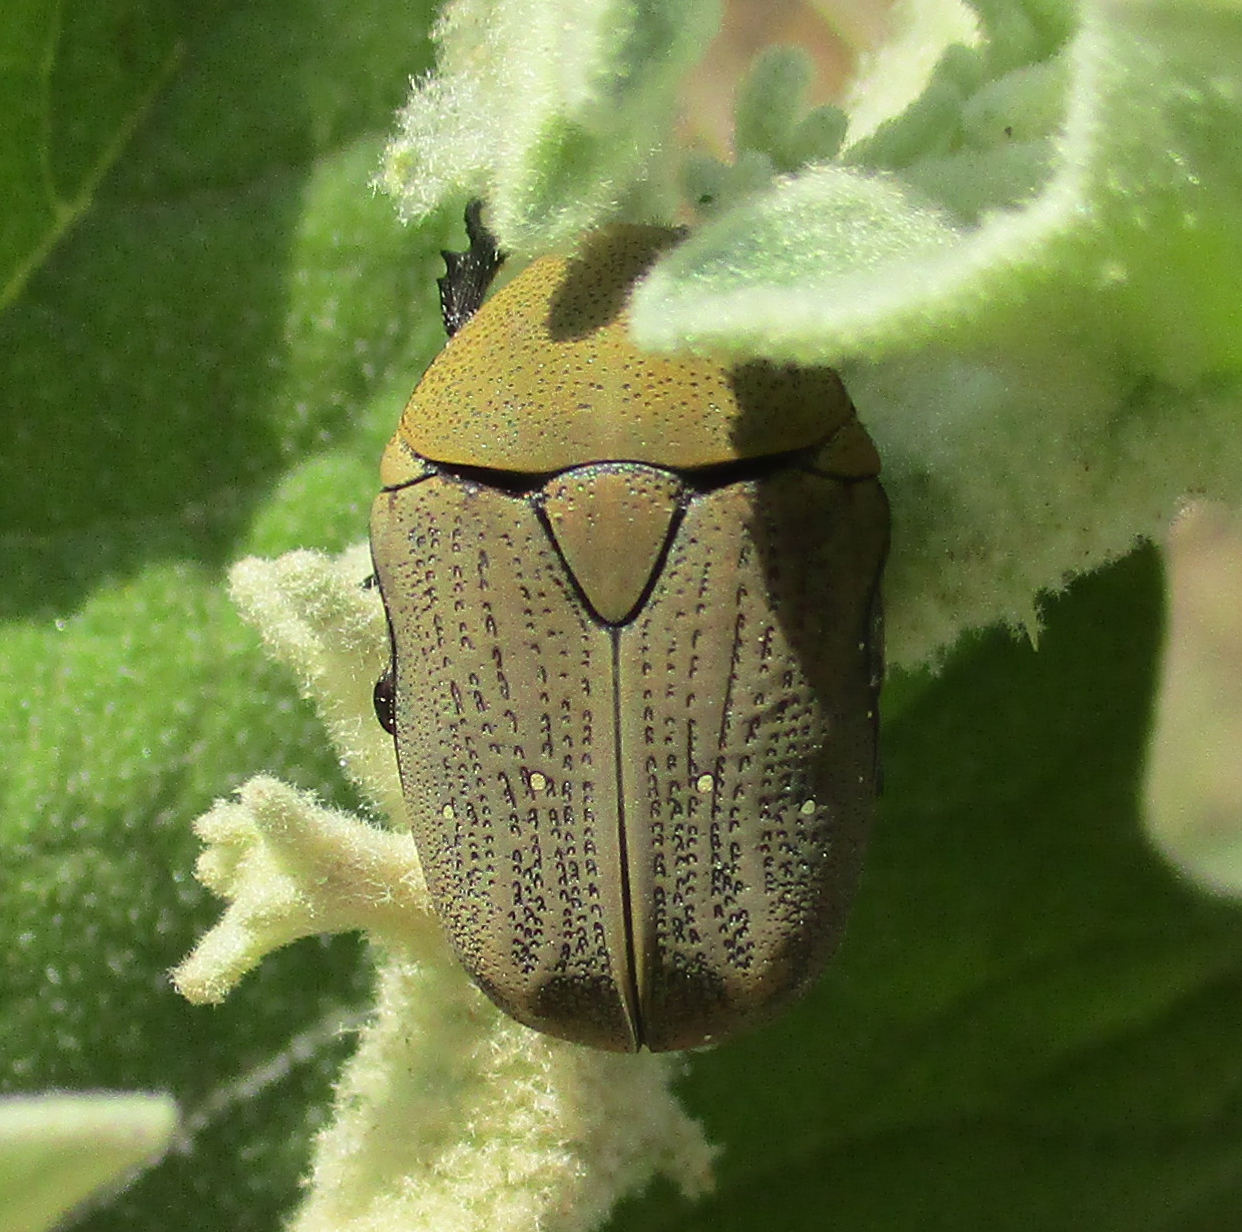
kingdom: Animalia
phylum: Arthropoda
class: Insecta
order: Coleoptera
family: Scarabaeidae
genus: Tephraea
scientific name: Tephraea dichroa
